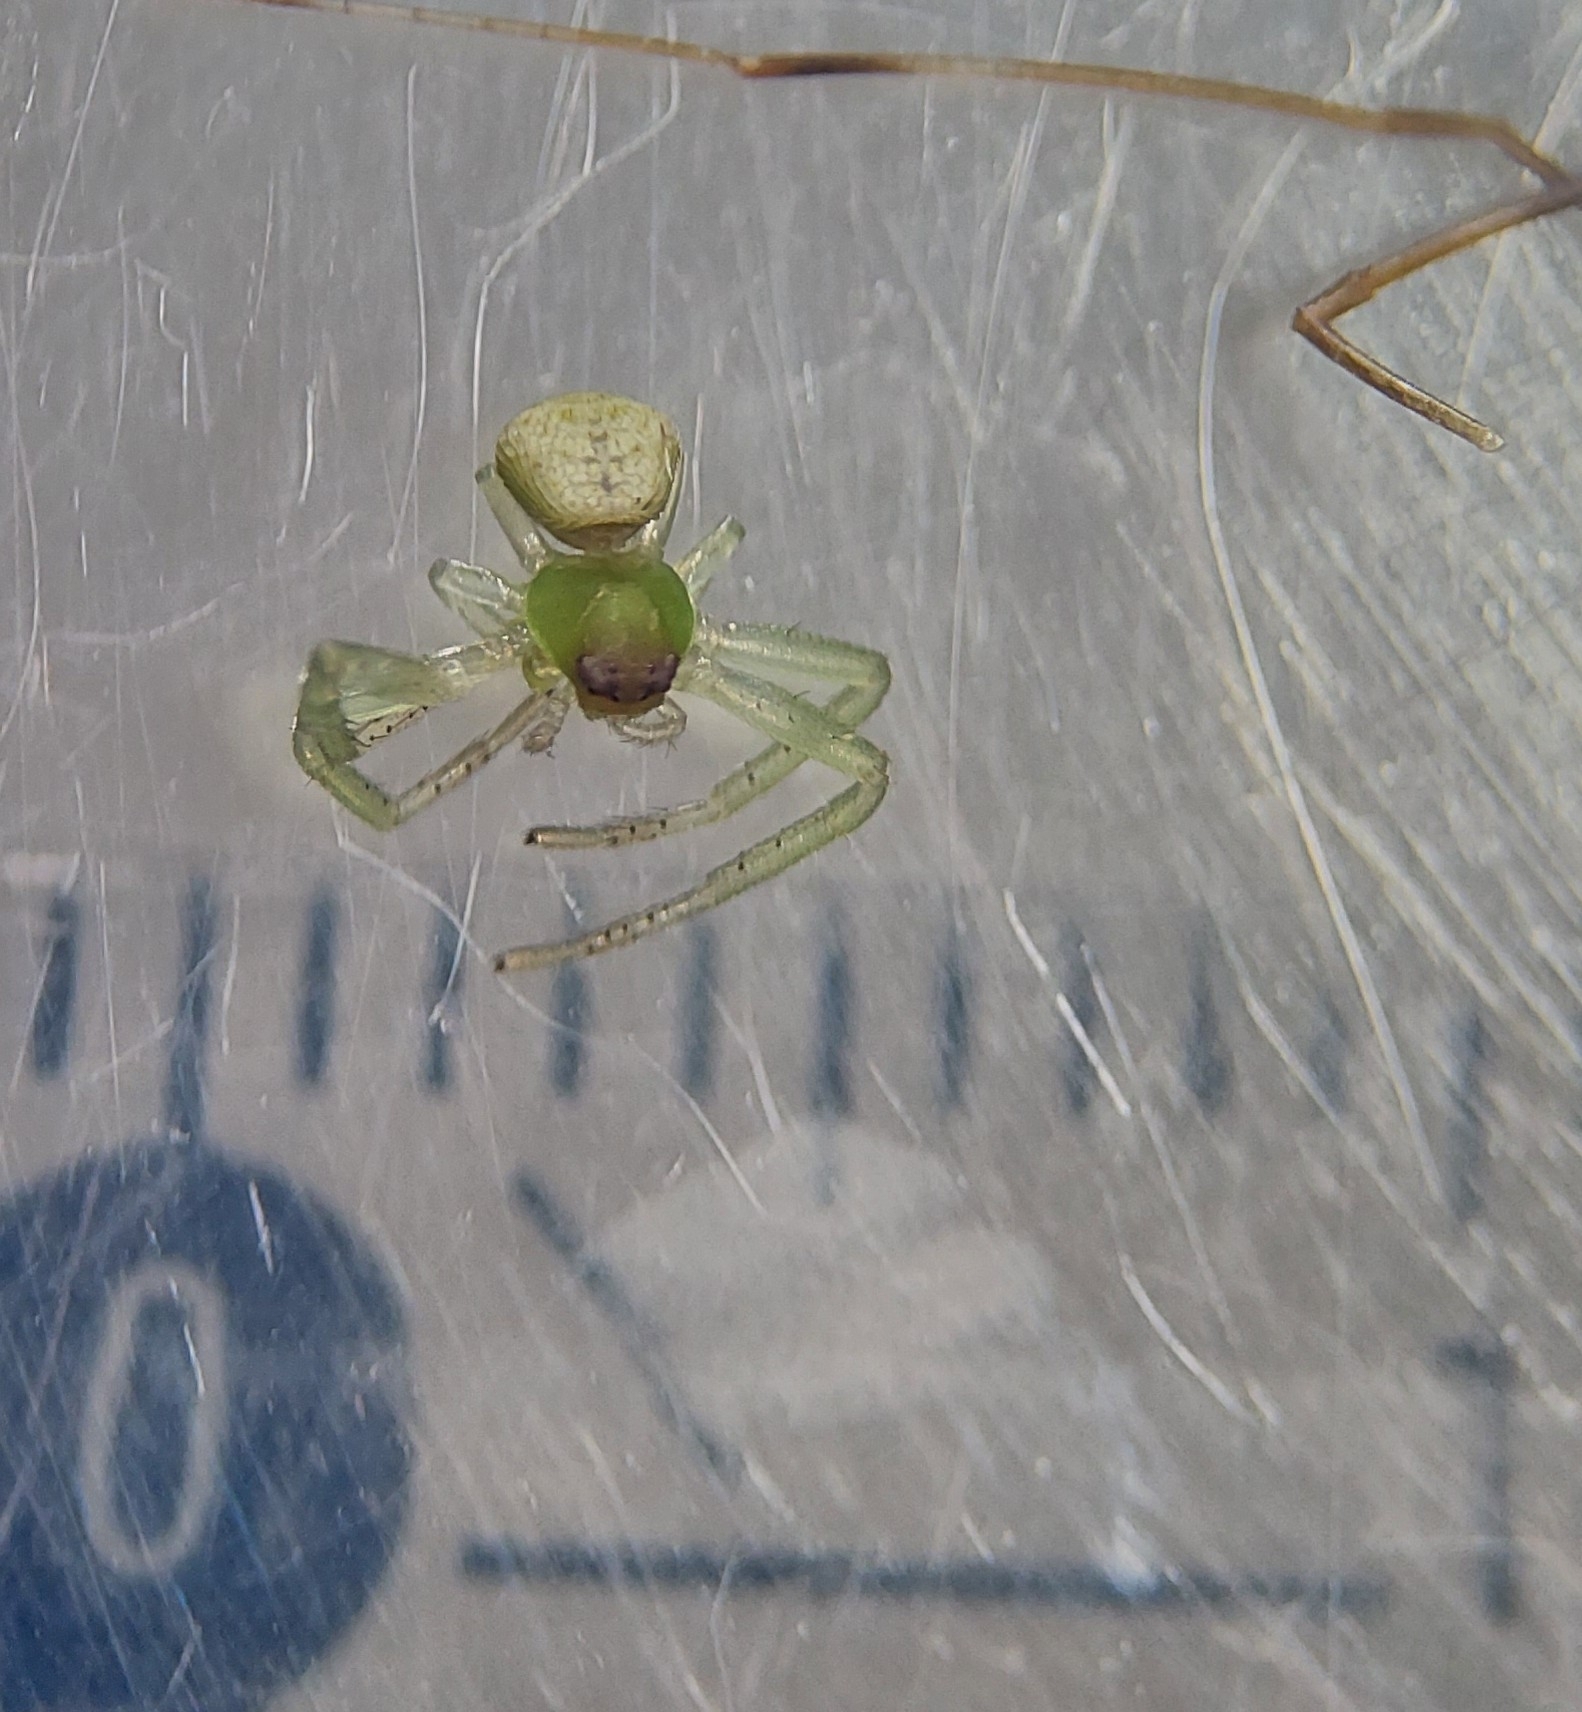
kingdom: Animalia
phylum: Arthropoda
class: Arachnida
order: Araneae
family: Thomisidae
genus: Ebrechtella
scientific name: Ebrechtella tricuspidata
